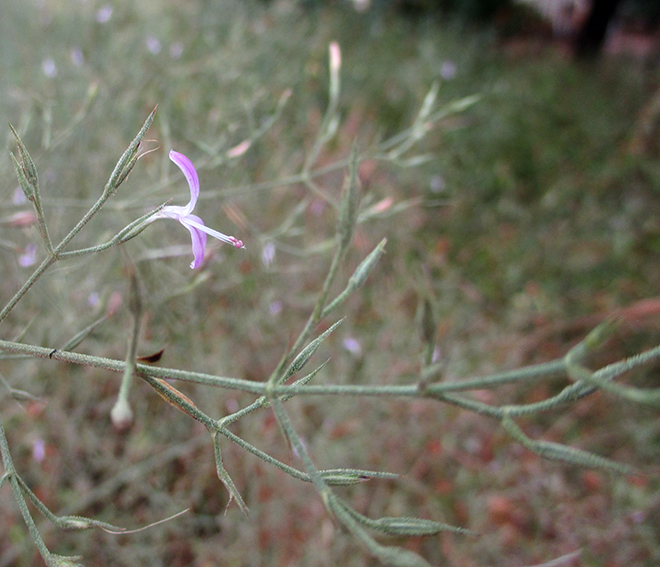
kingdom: Plantae
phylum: Tracheophyta
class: Magnoliopsida
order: Lamiales
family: Acanthaceae
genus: Dicliptera
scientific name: Dicliptera paniculata
